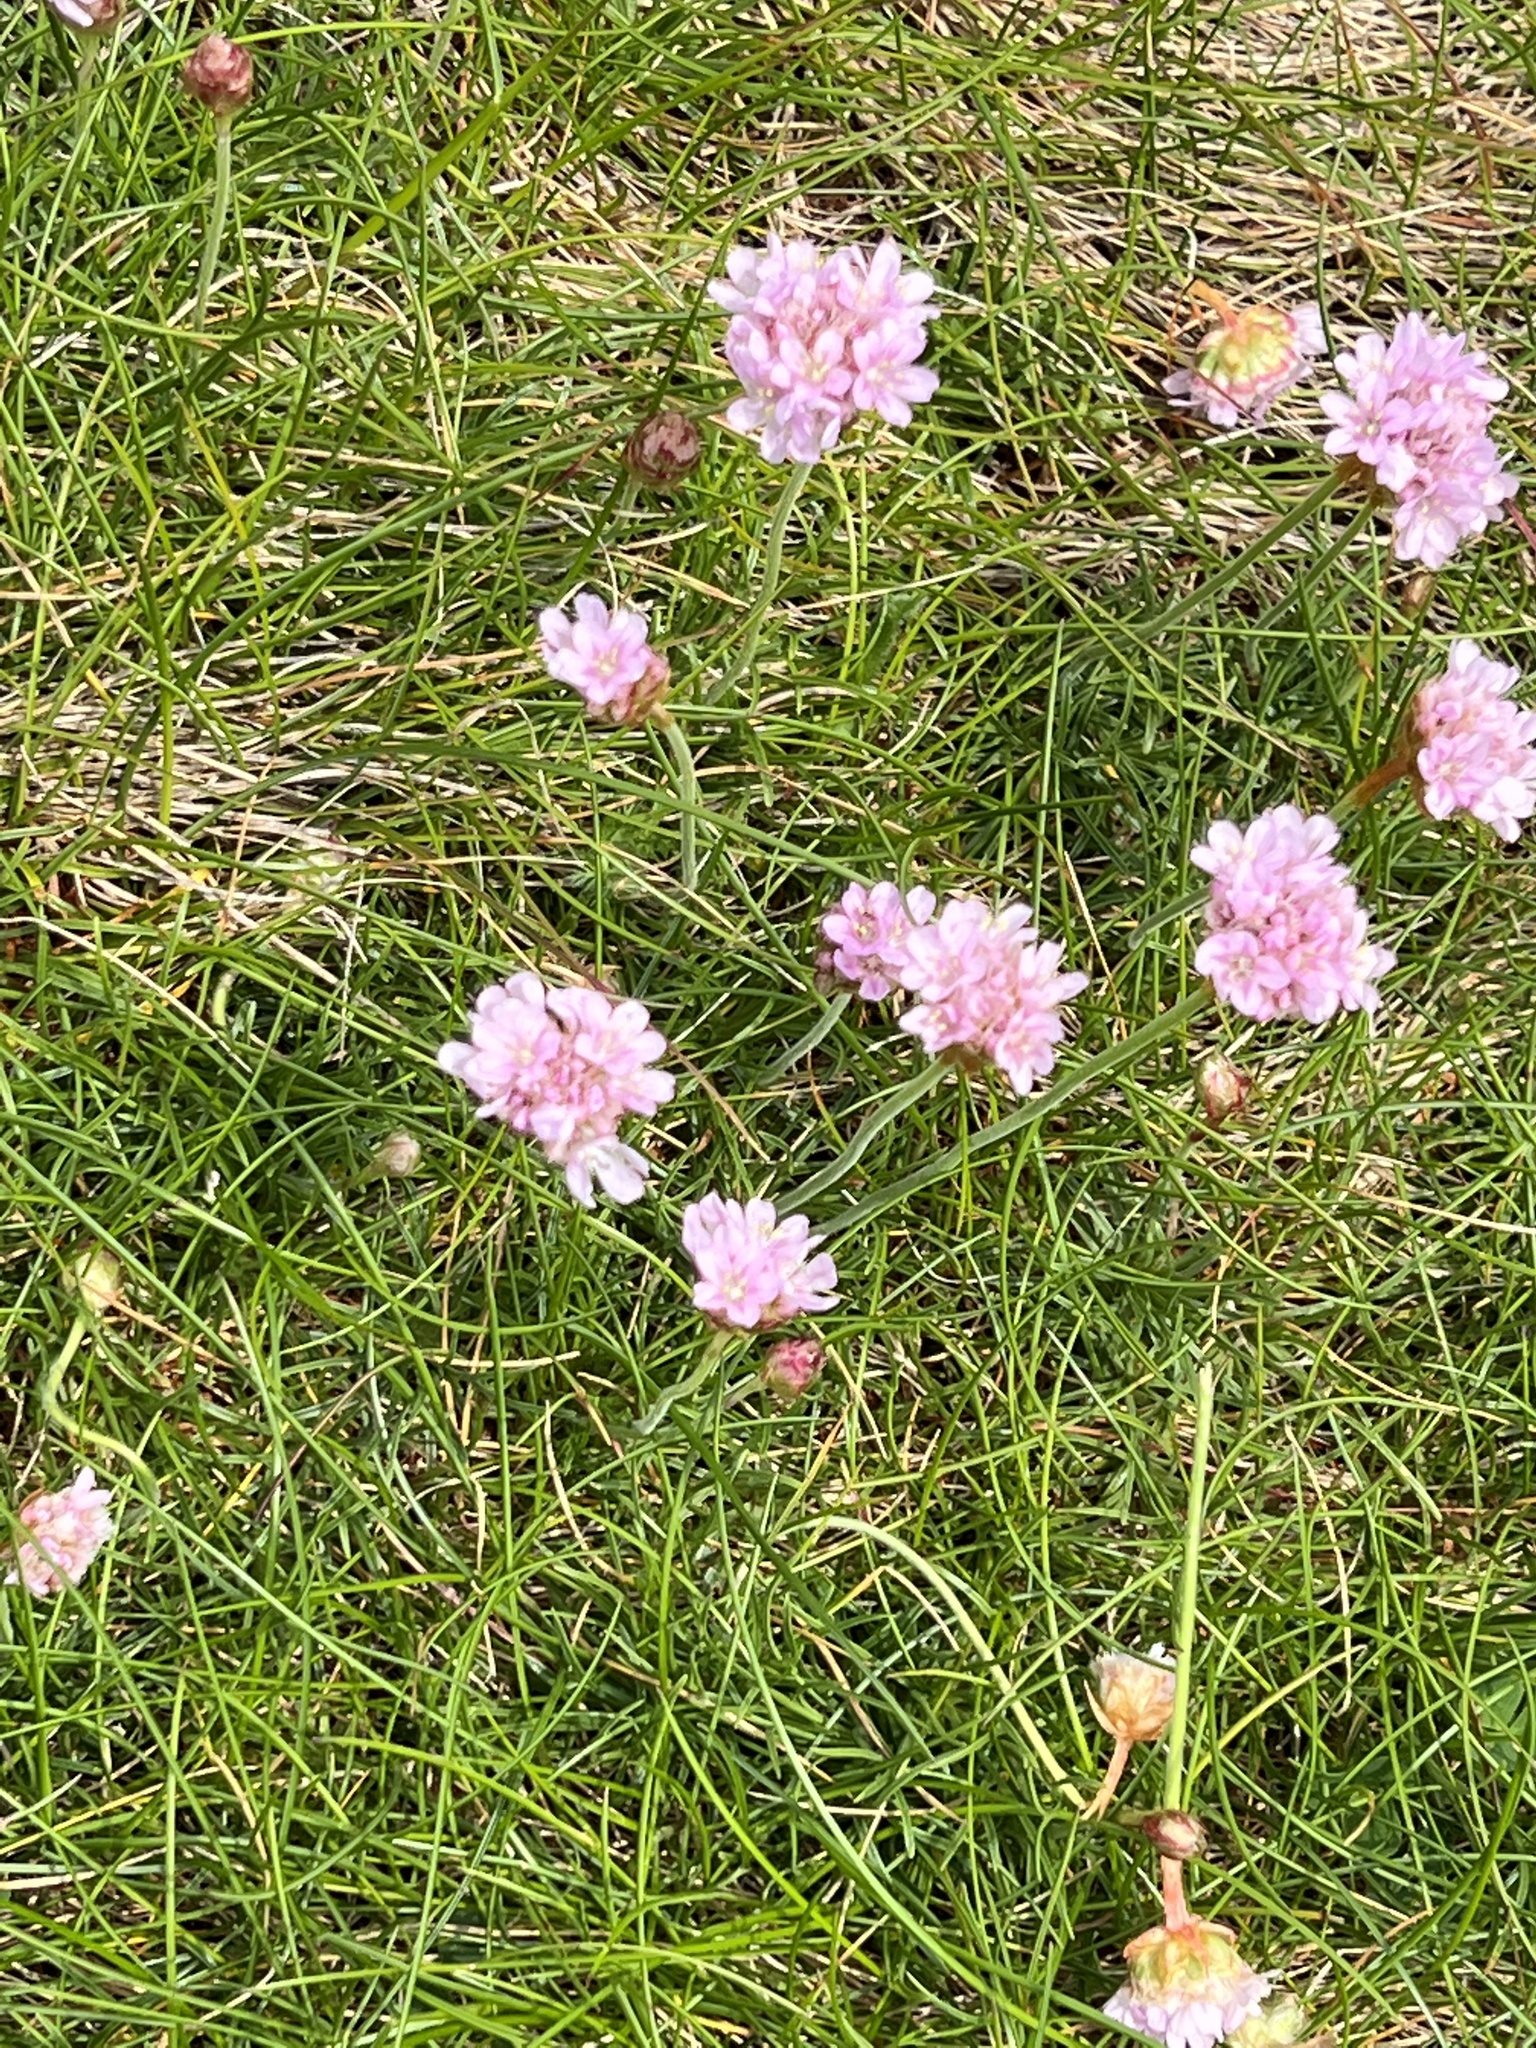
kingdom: Plantae
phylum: Tracheophyta
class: Magnoliopsida
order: Caryophyllales
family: Plumbaginaceae
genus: Armeria
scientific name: Armeria maritima
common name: Thrift
